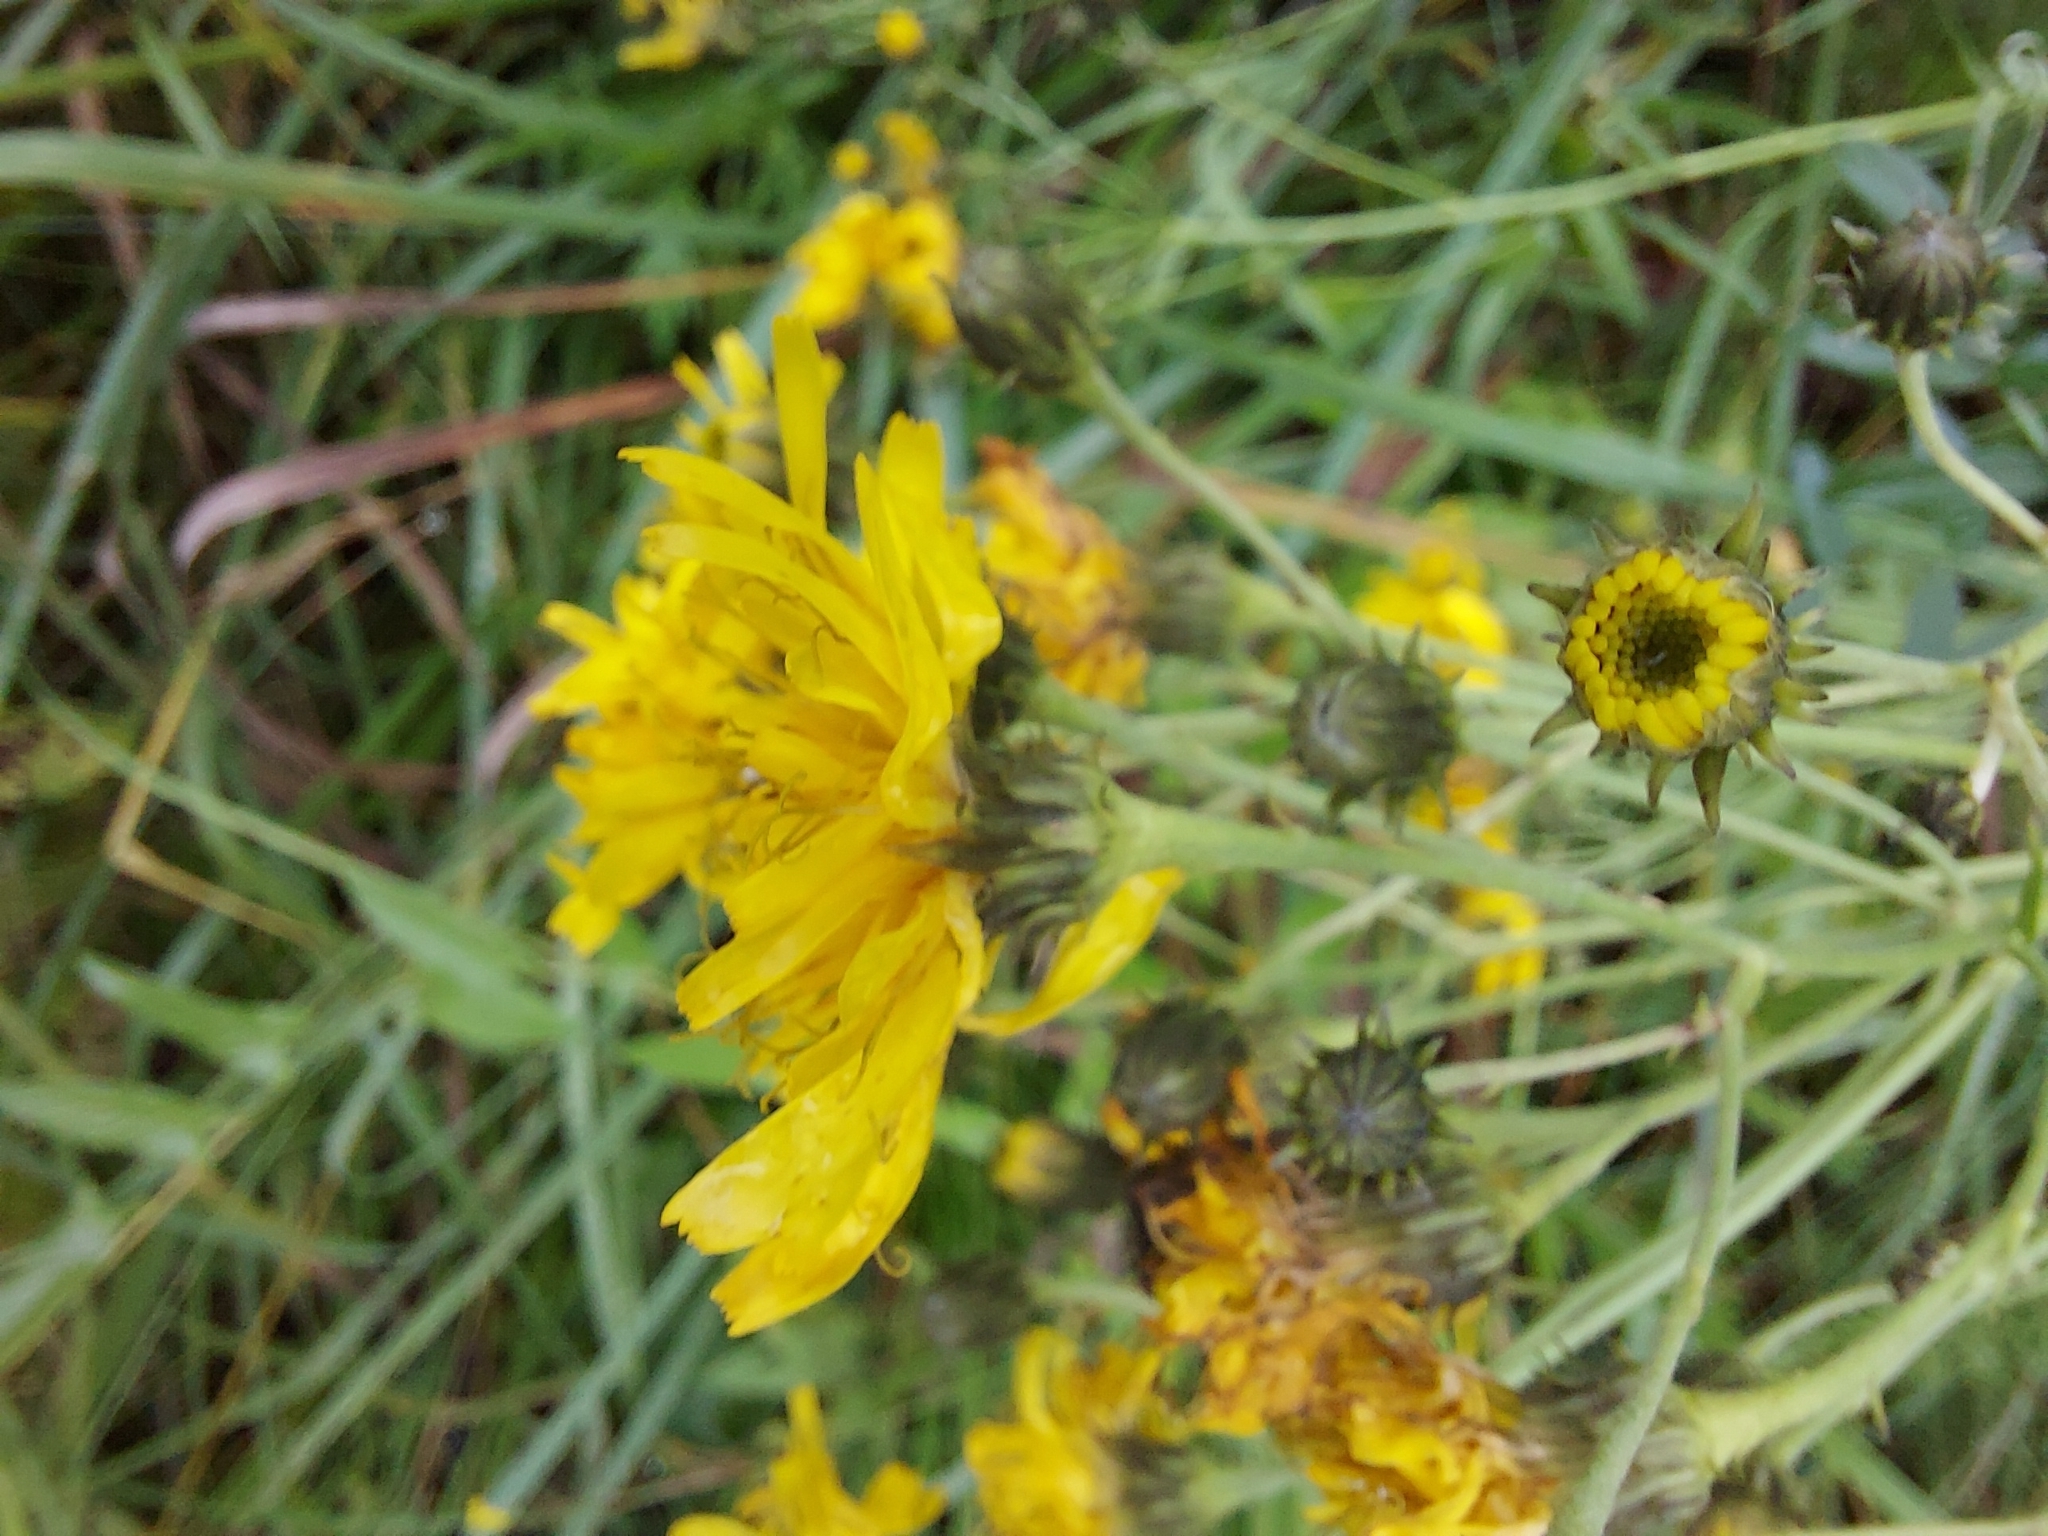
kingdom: Plantae
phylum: Tracheophyta
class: Magnoliopsida
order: Asterales
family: Asteraceae
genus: Hieracium
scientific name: Hieracium umbellatum
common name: Northern hawkweed
